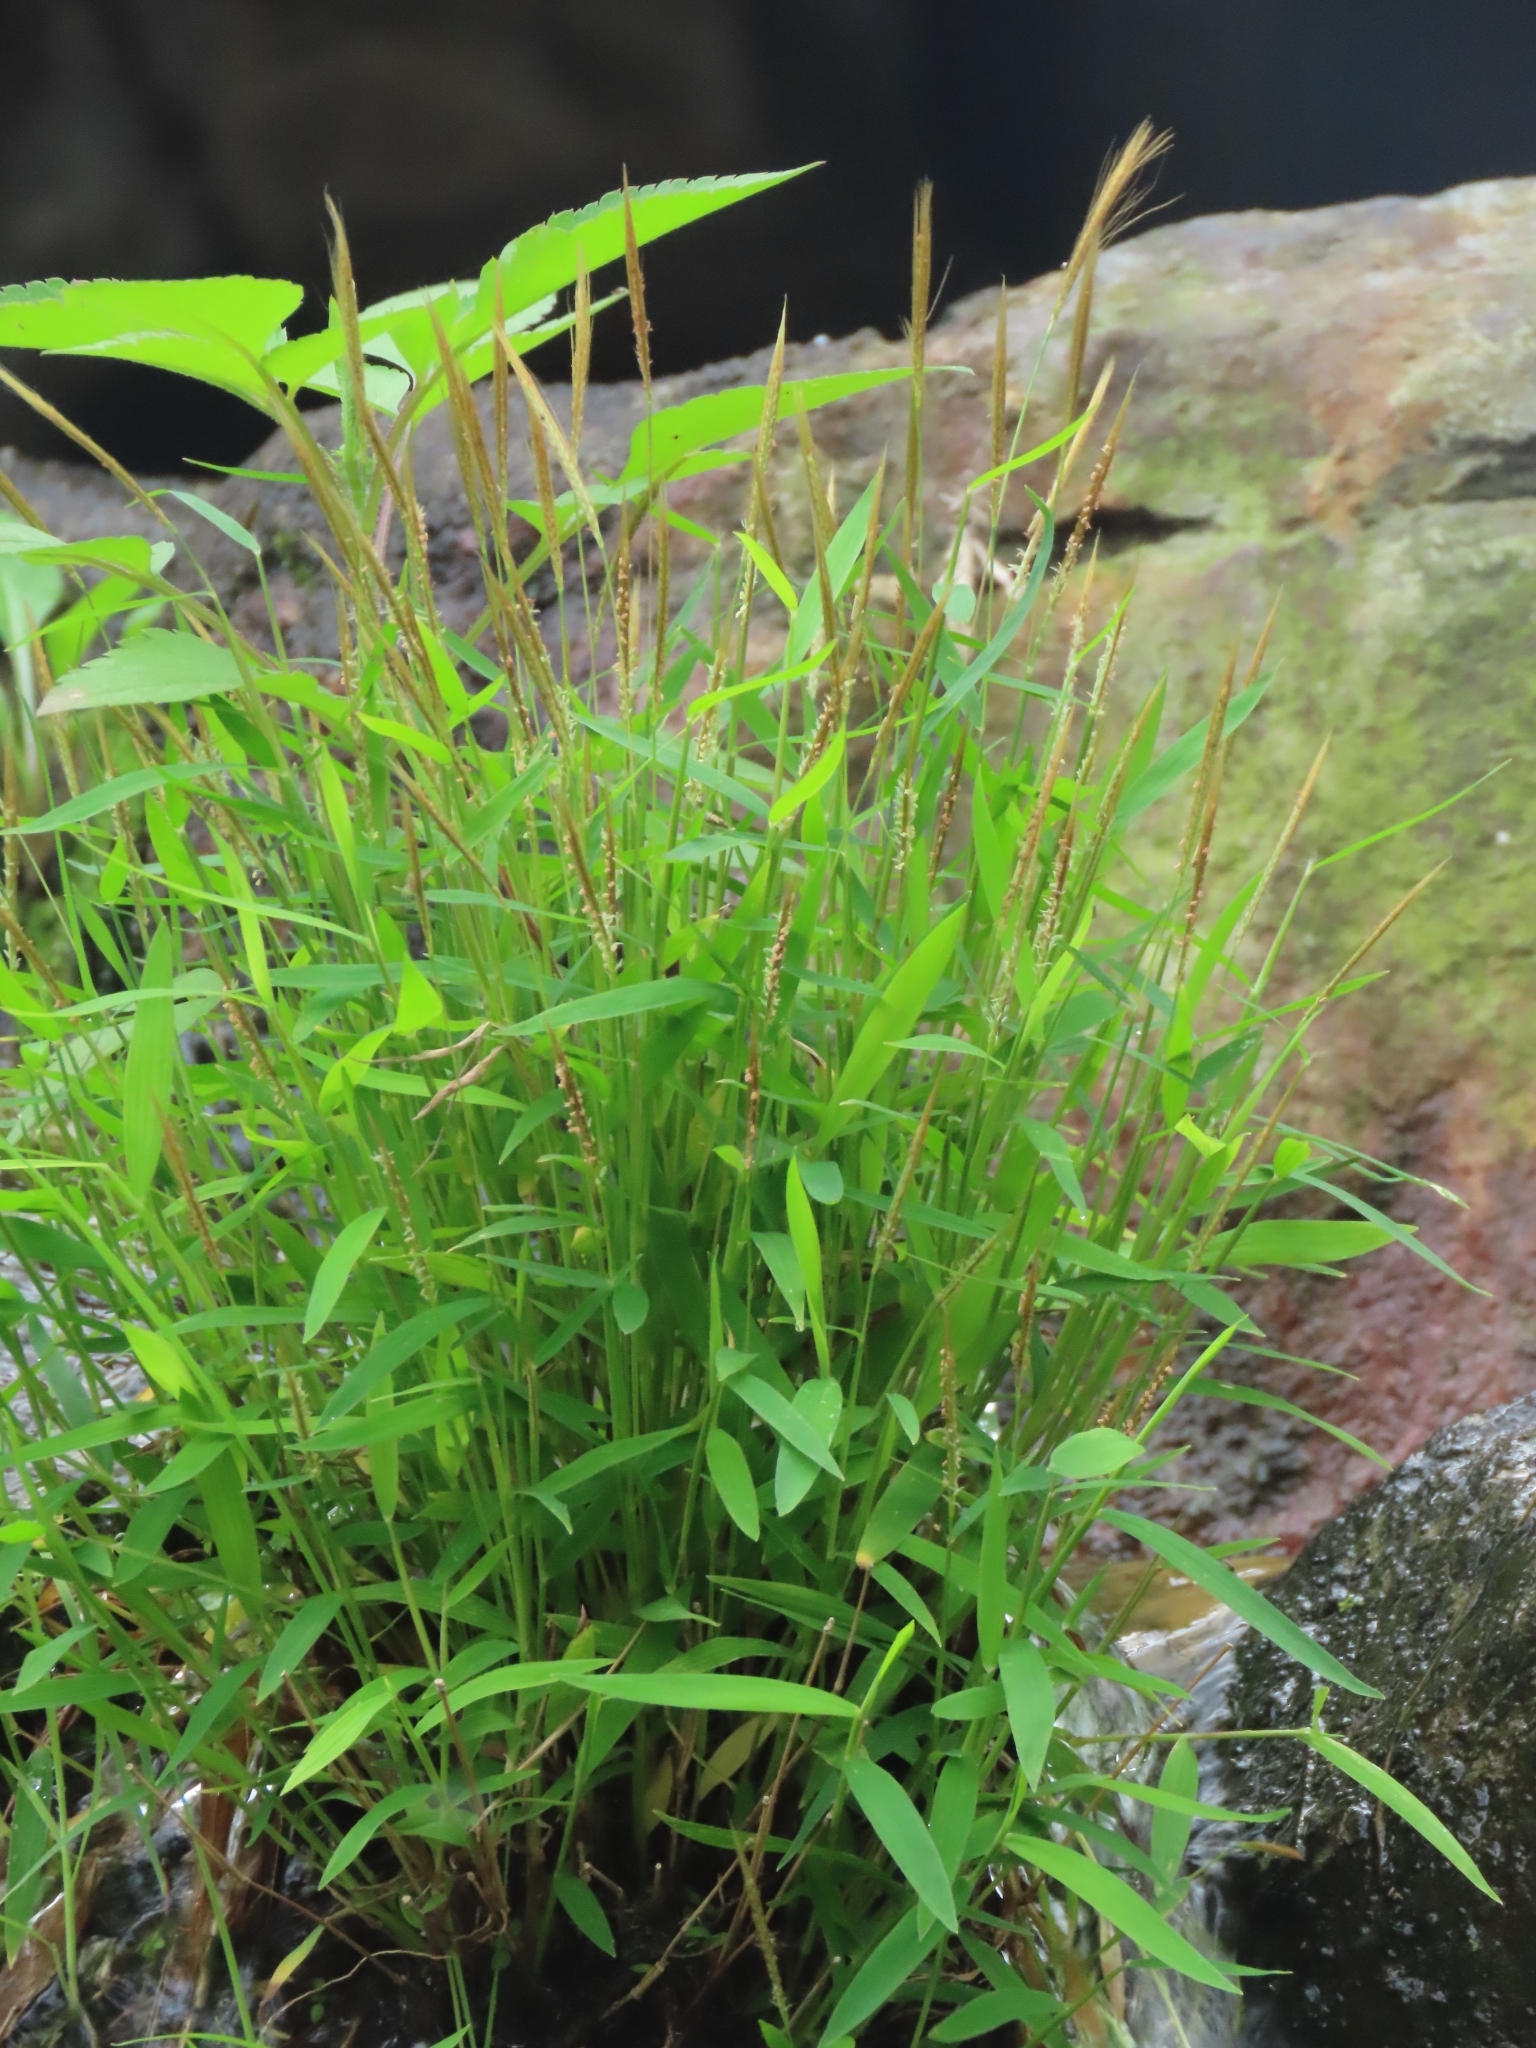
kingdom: Plantae
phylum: Tracheophyta
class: Liliopsida
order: Poales
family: Poaceae
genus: Pogonatherum
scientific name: Pogonatherum crinitum
